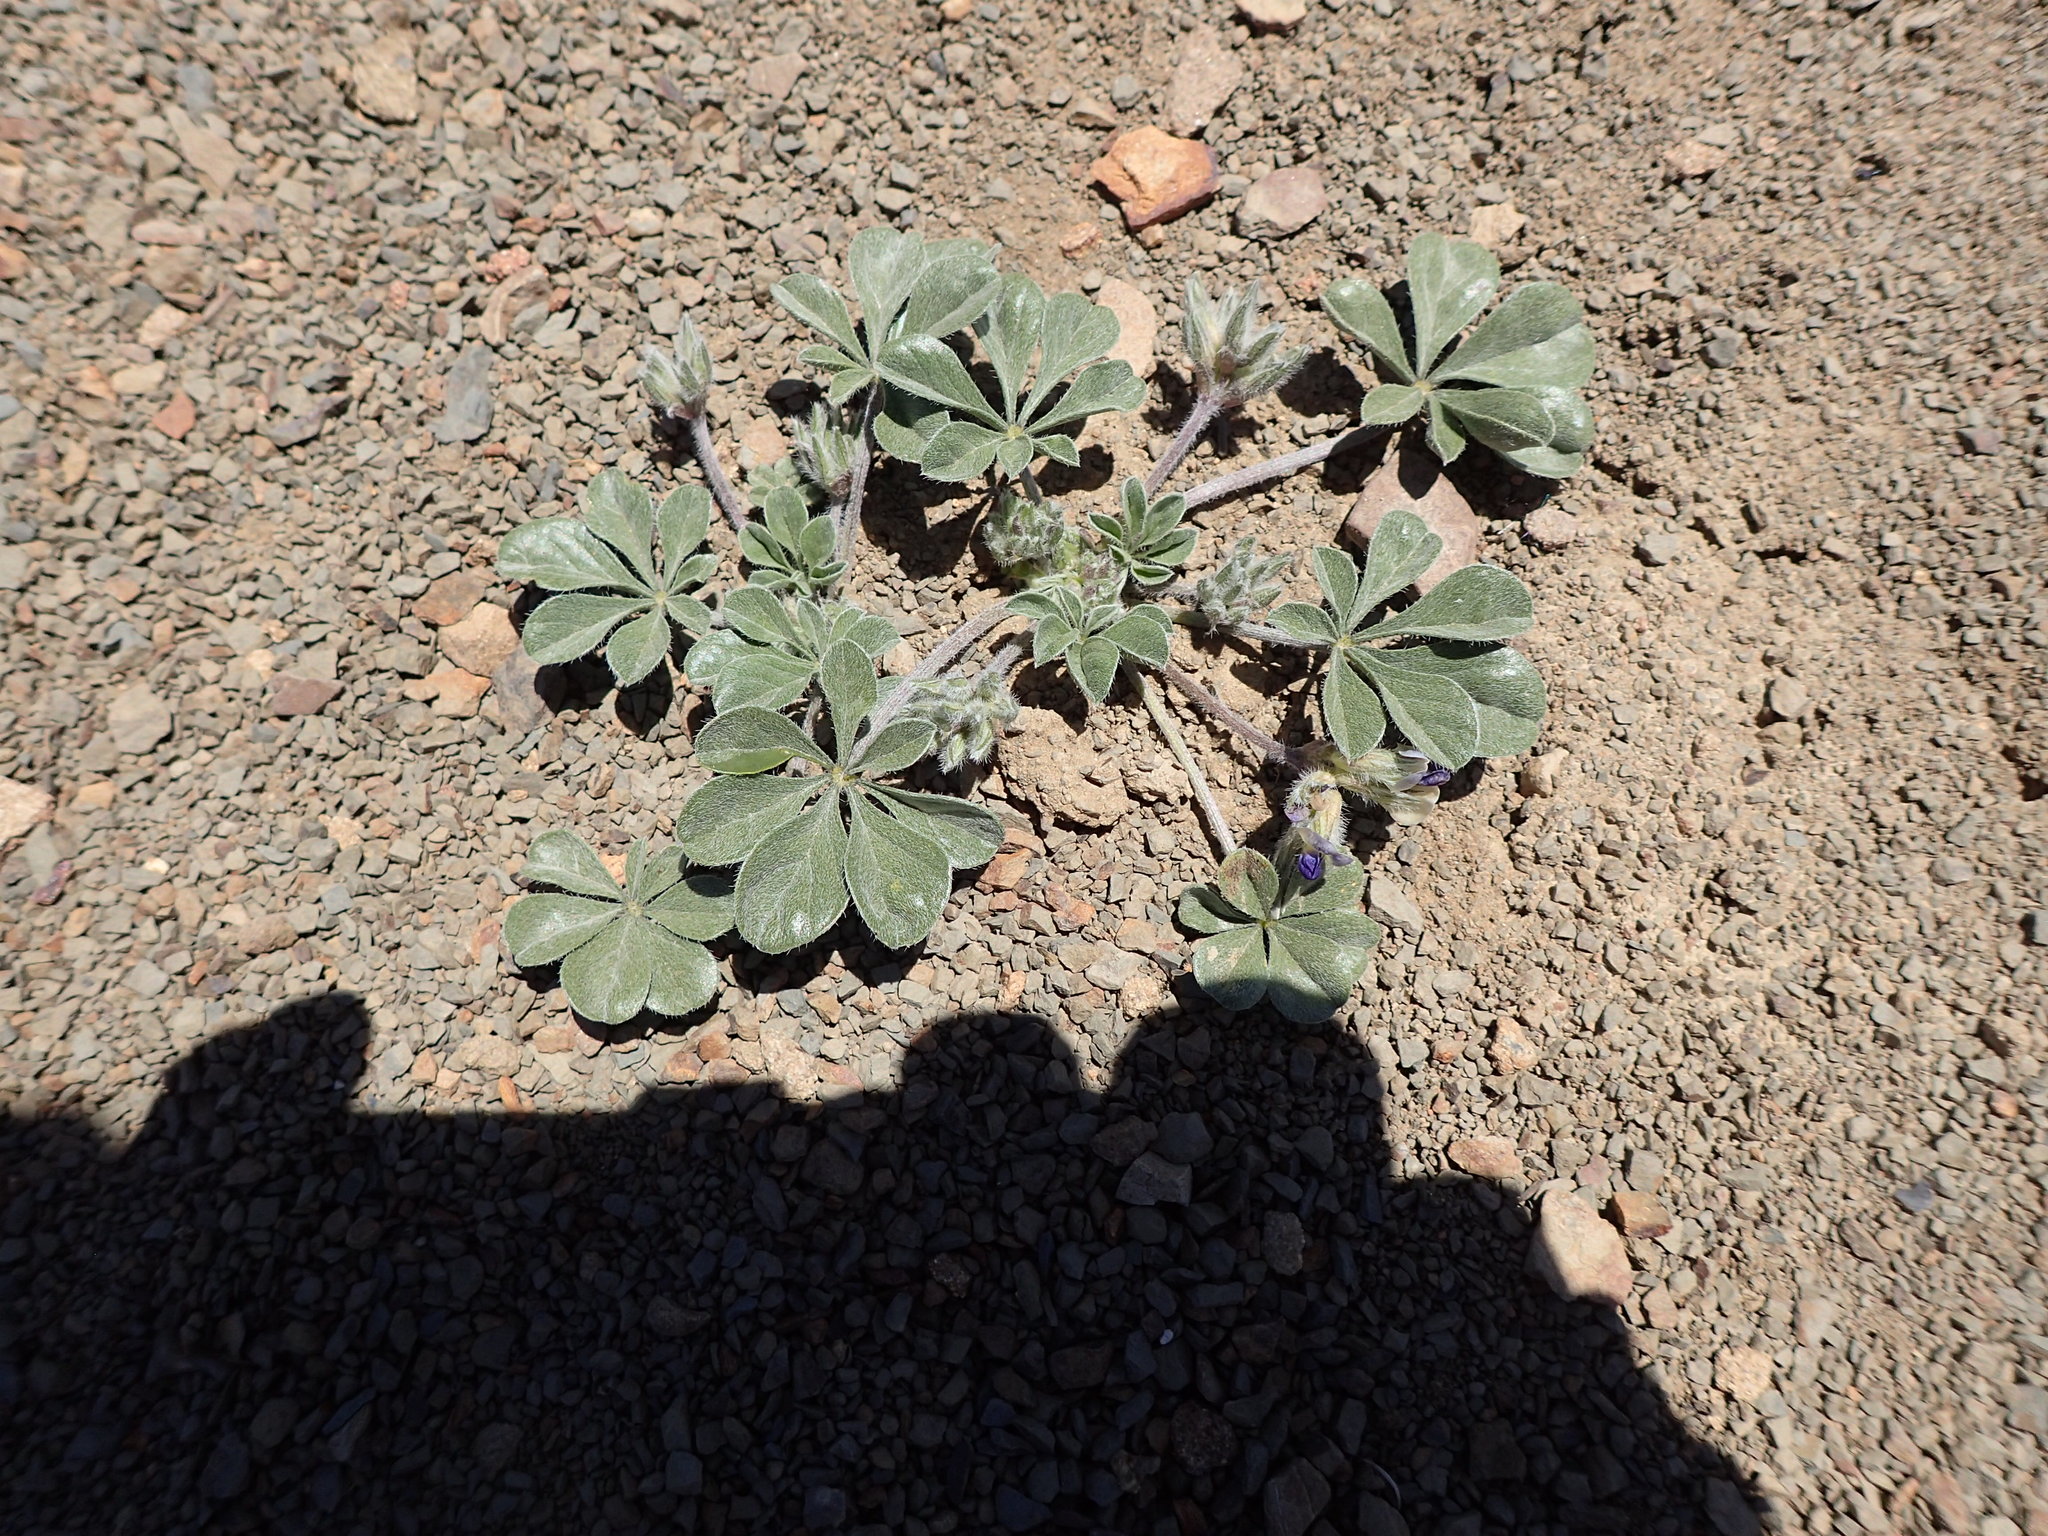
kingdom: Plantae
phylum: Tracheophyta
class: Magnoliopsida
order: Fabales
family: Fabaceae
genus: Pediomelum
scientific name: Pediomelum californicum
